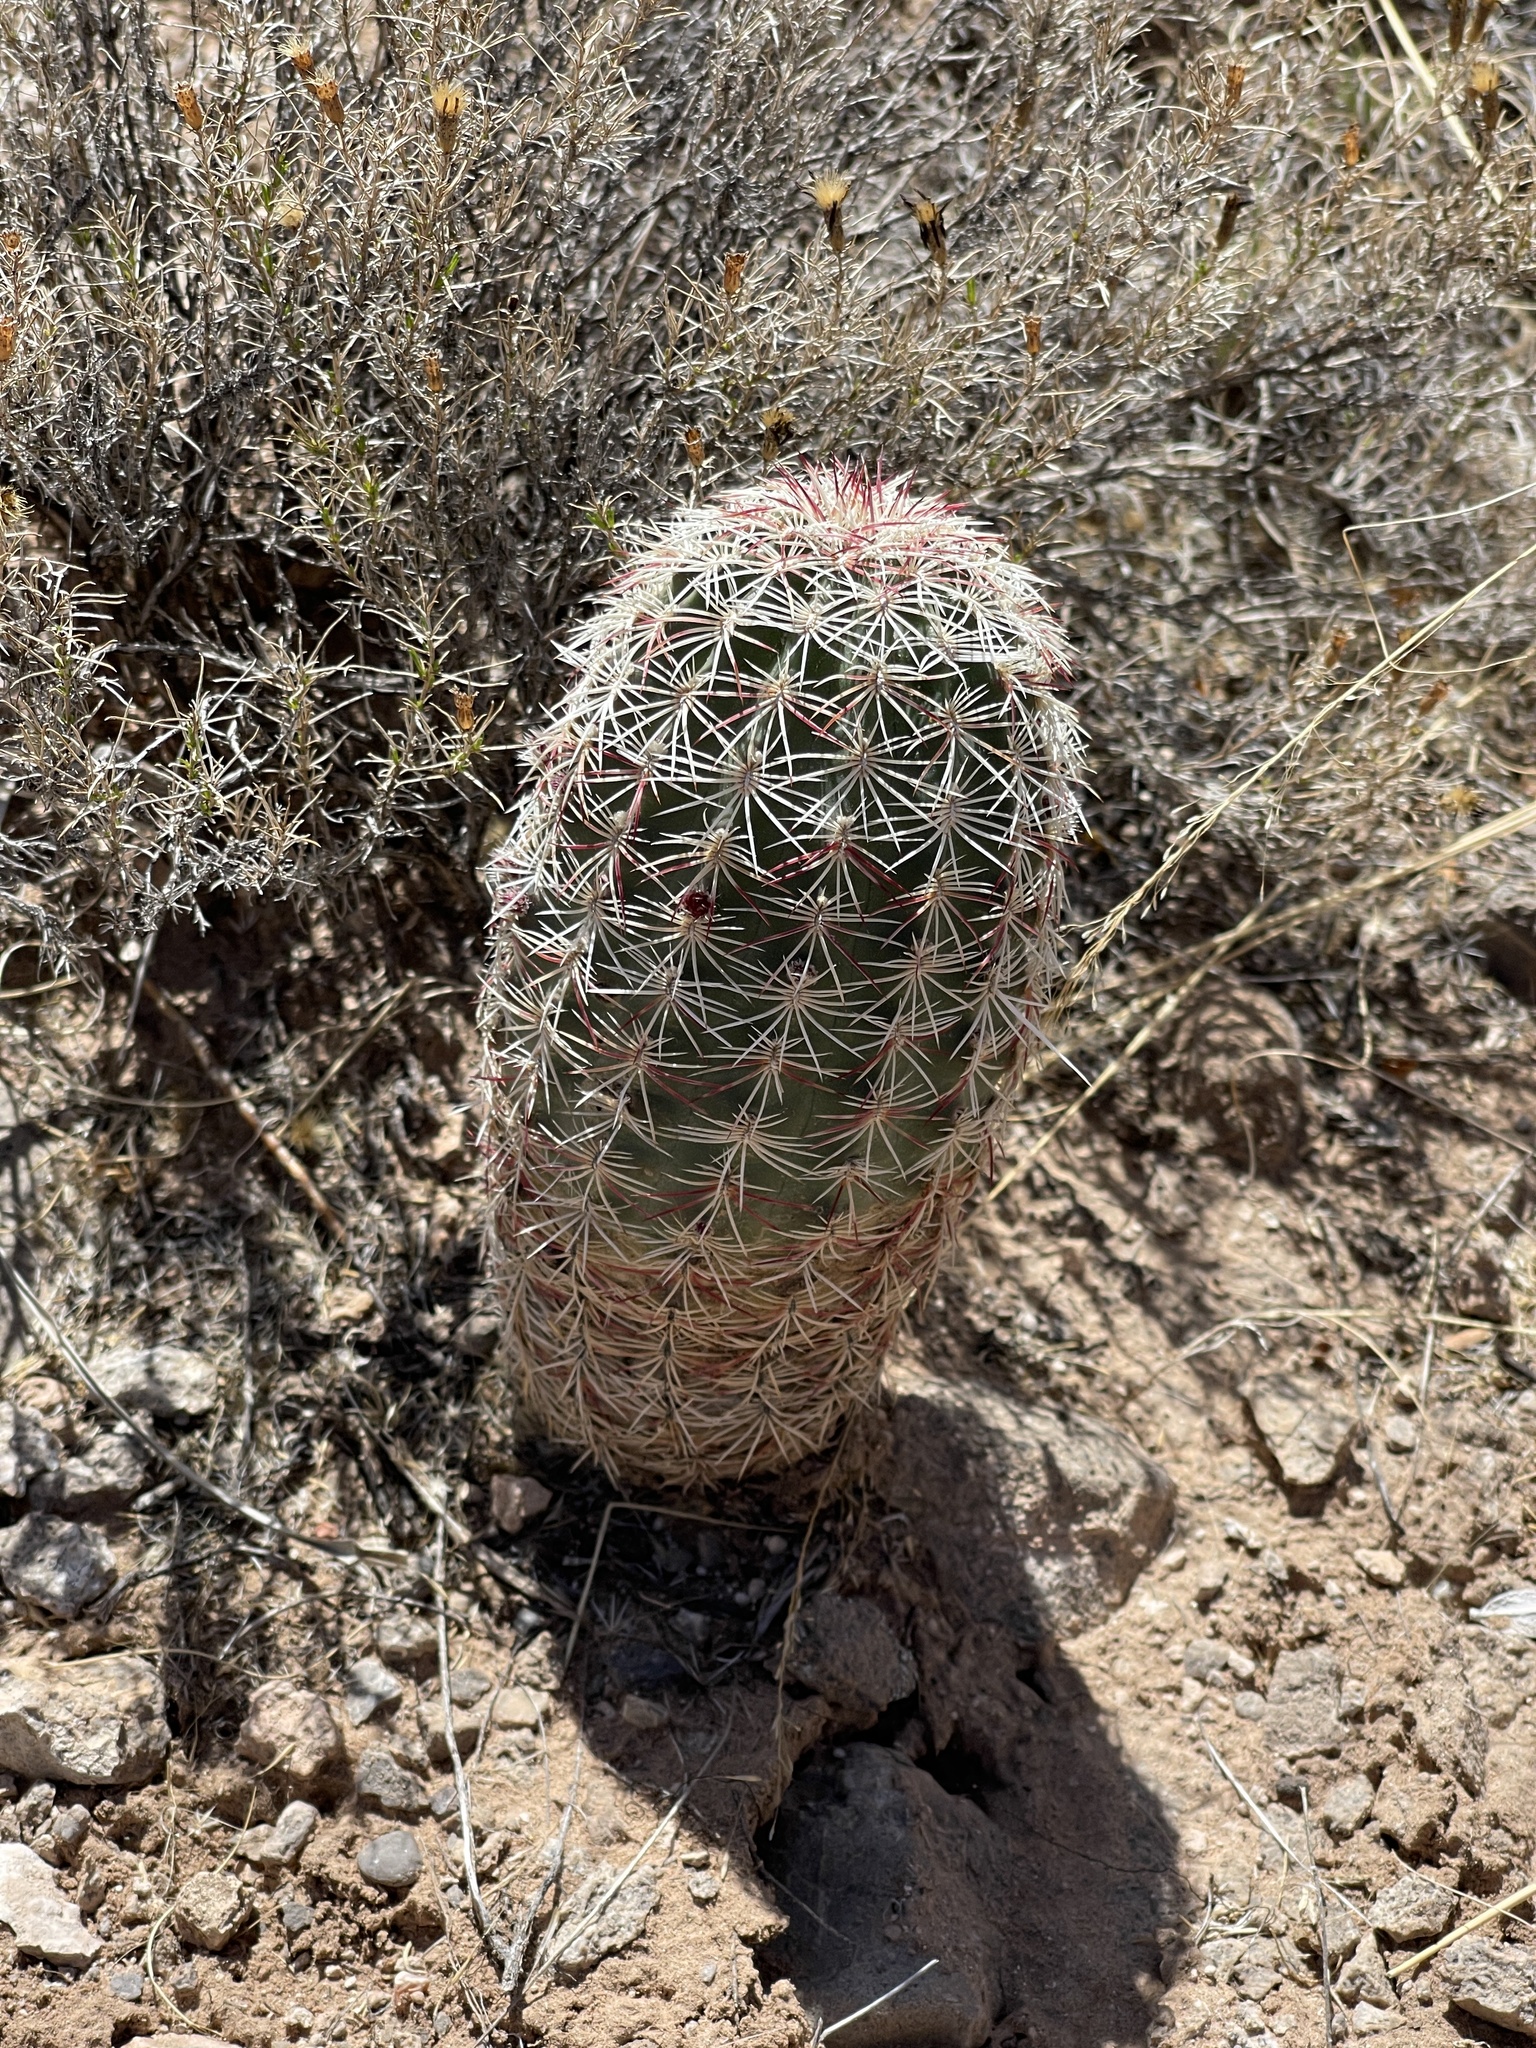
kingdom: Plantae
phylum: Tracheophyta
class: Magnoliopsida
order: Caryophyllales
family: Cactaceae
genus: Echinocereus
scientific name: Echinocereus viridiflorus
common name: Nylon hedgehog cactus
